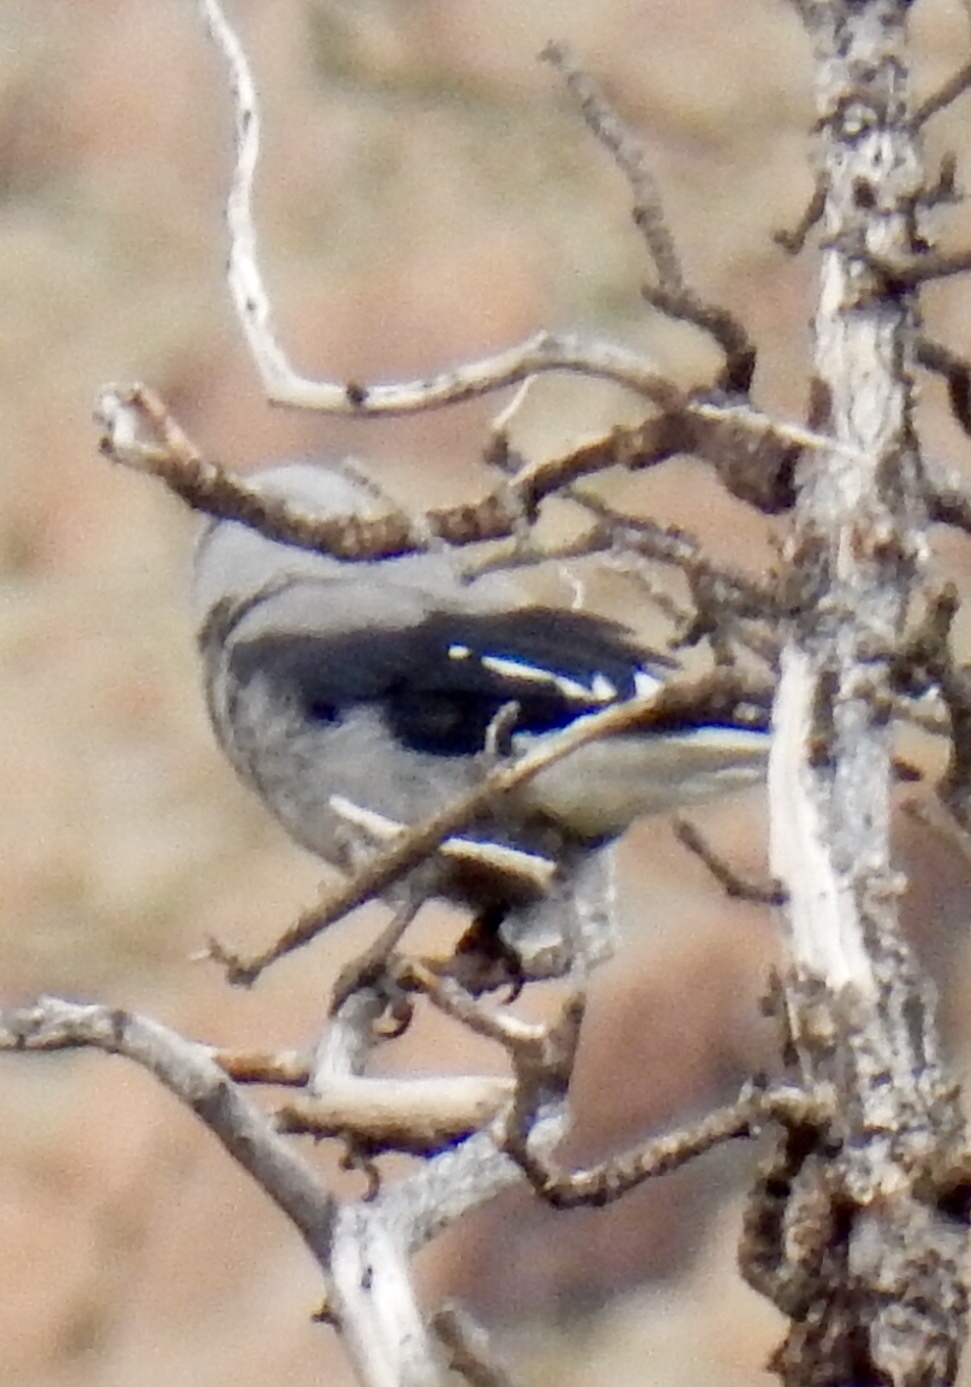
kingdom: Animalia
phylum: Chordata
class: Aves
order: Passeriformes
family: Corvidae
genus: Nucifraga
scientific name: Nucifraga columbiana
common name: Clark's nutcracker
